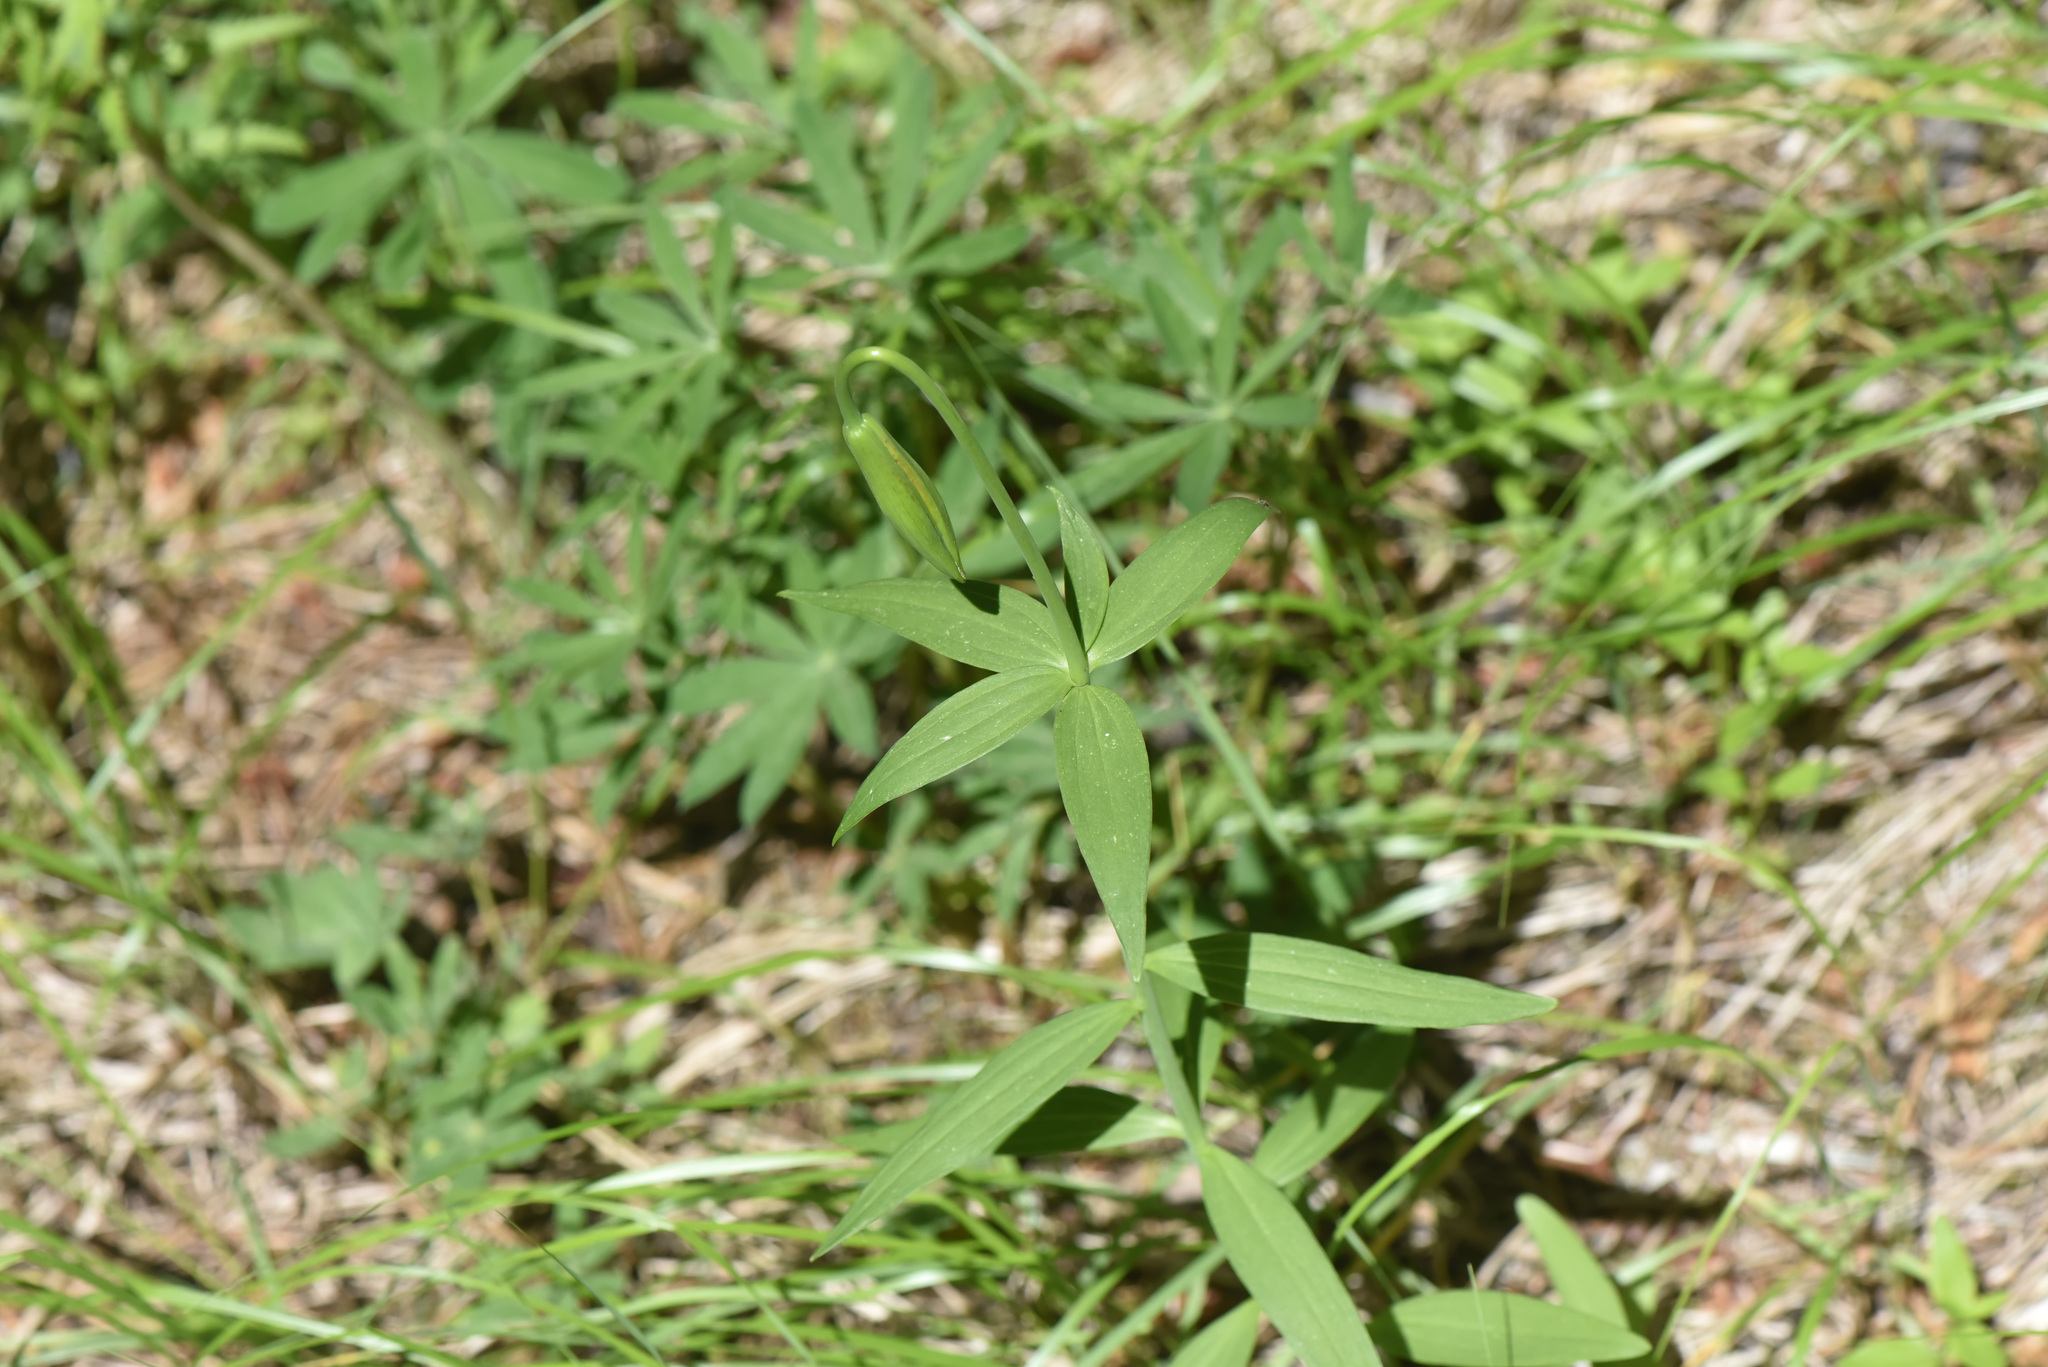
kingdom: Plantae
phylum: Tracheophyta
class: Liliopsida
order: Liliales
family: Liliaceae
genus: Lilium
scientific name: Lilium columbianum
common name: Columbia lily
